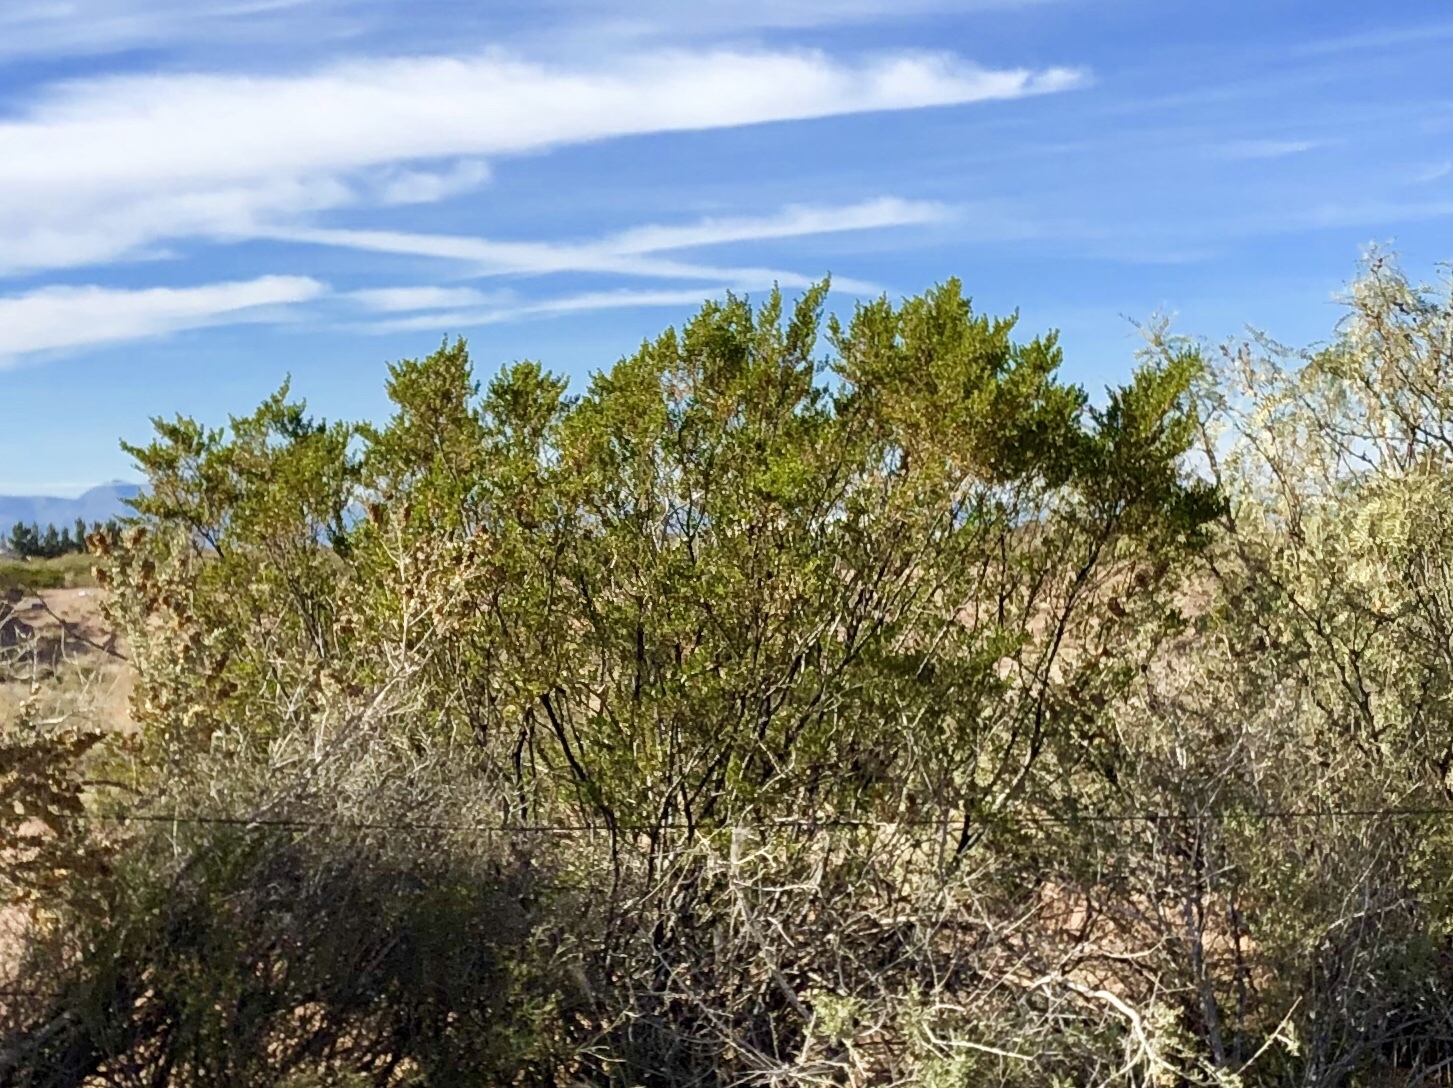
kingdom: Plantae
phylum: Tracheophyta
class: Magnoliopsida
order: Zygophyllales
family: Zygophyllaceae
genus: Larrea
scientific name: Larrea tridentata
